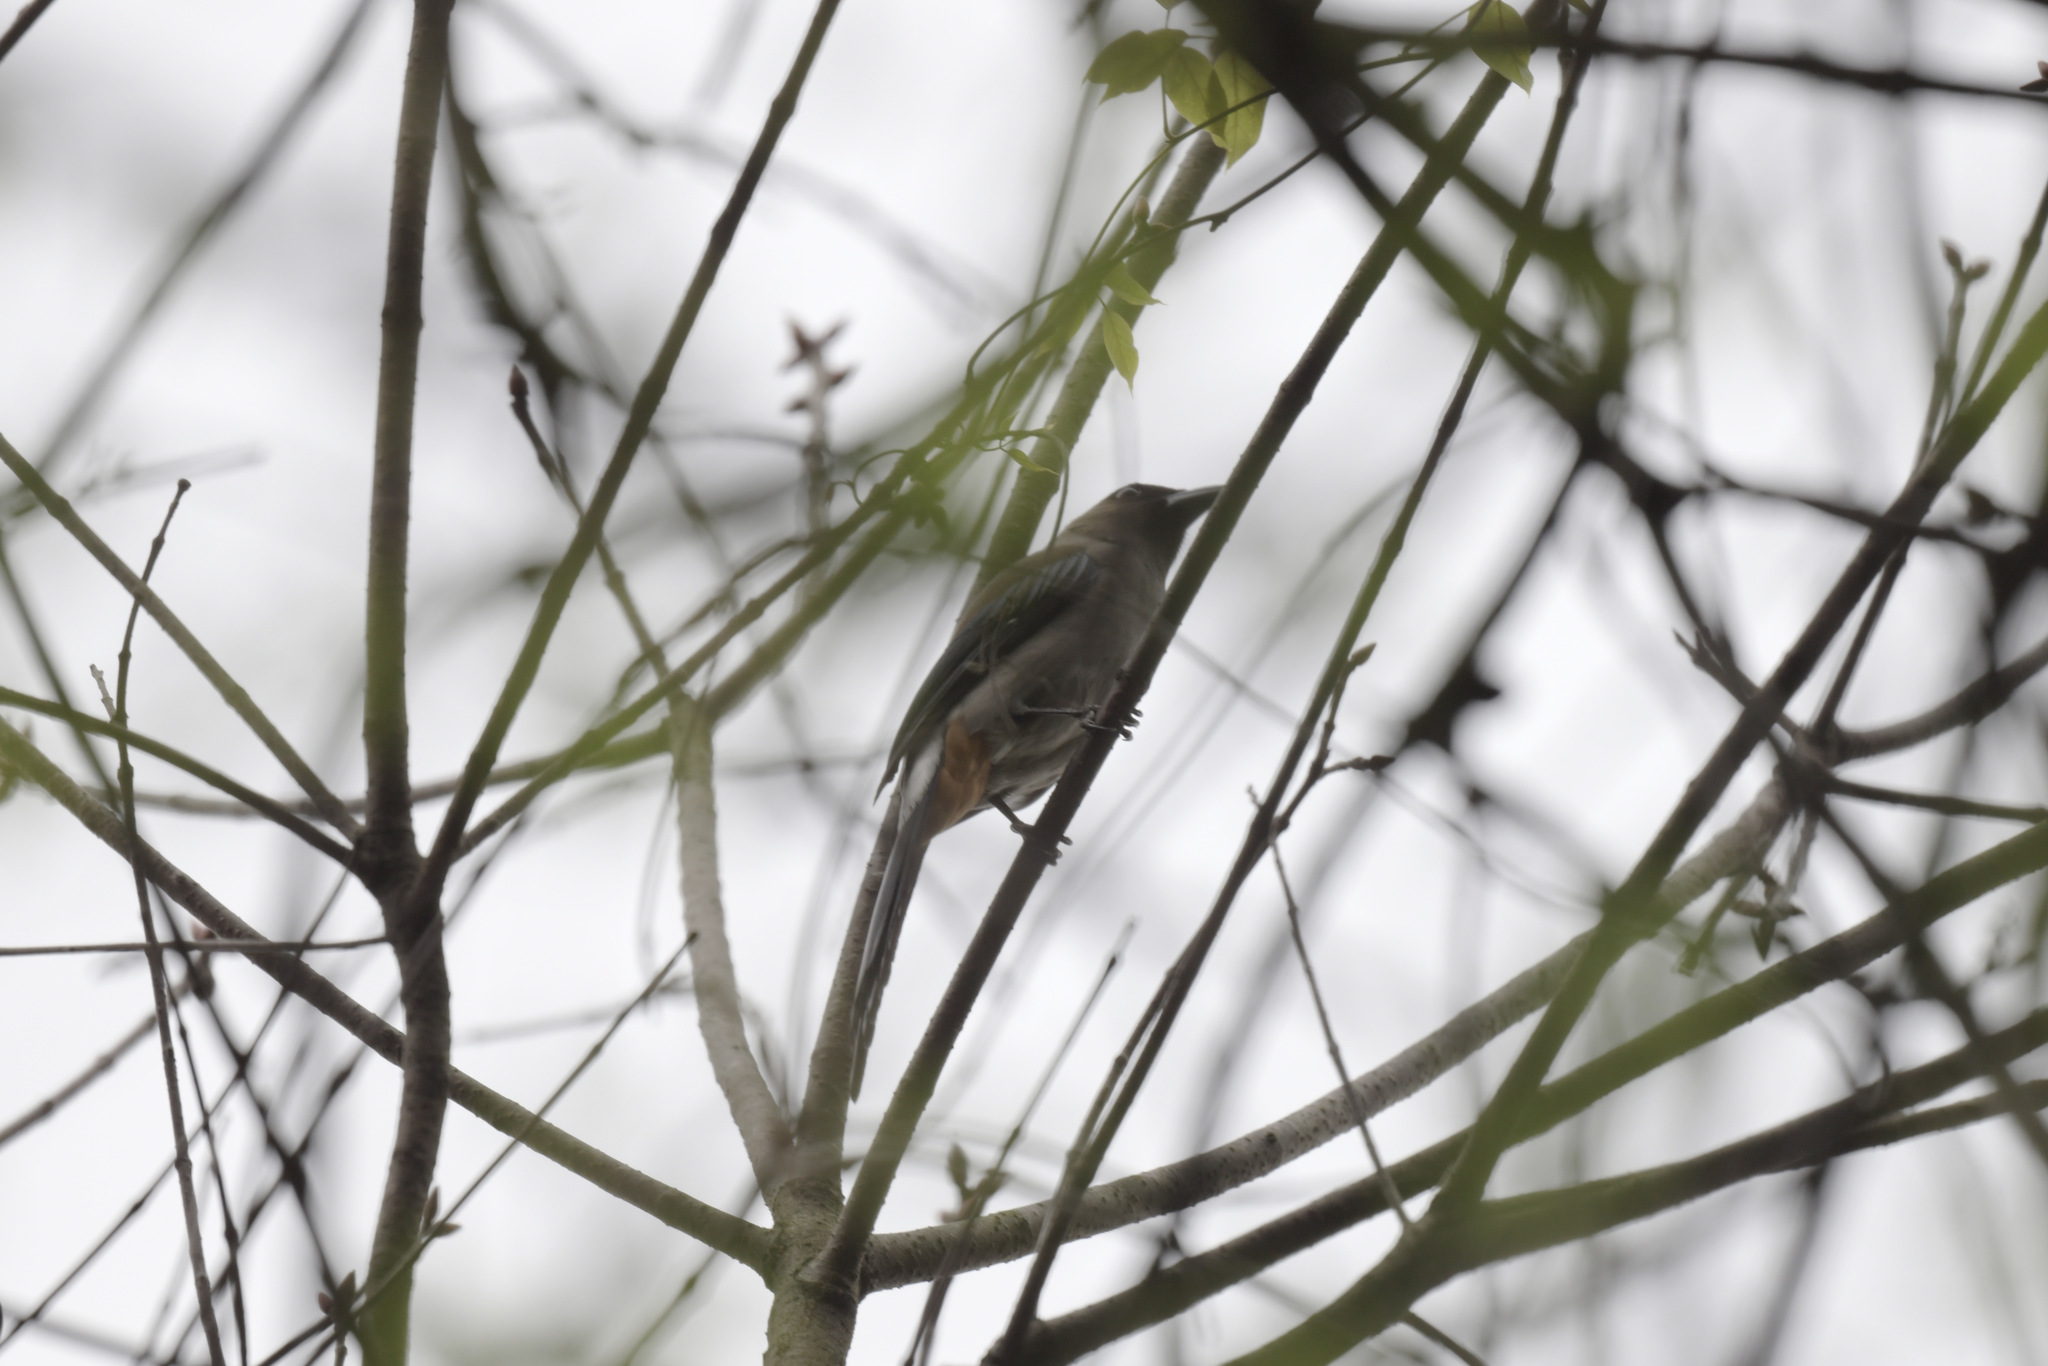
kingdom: Animalia
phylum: Chordata
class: Aves
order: Passeriformes
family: Corvidae
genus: Dendrocitta
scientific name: Dendrocitta formosae
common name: Grey treepie
